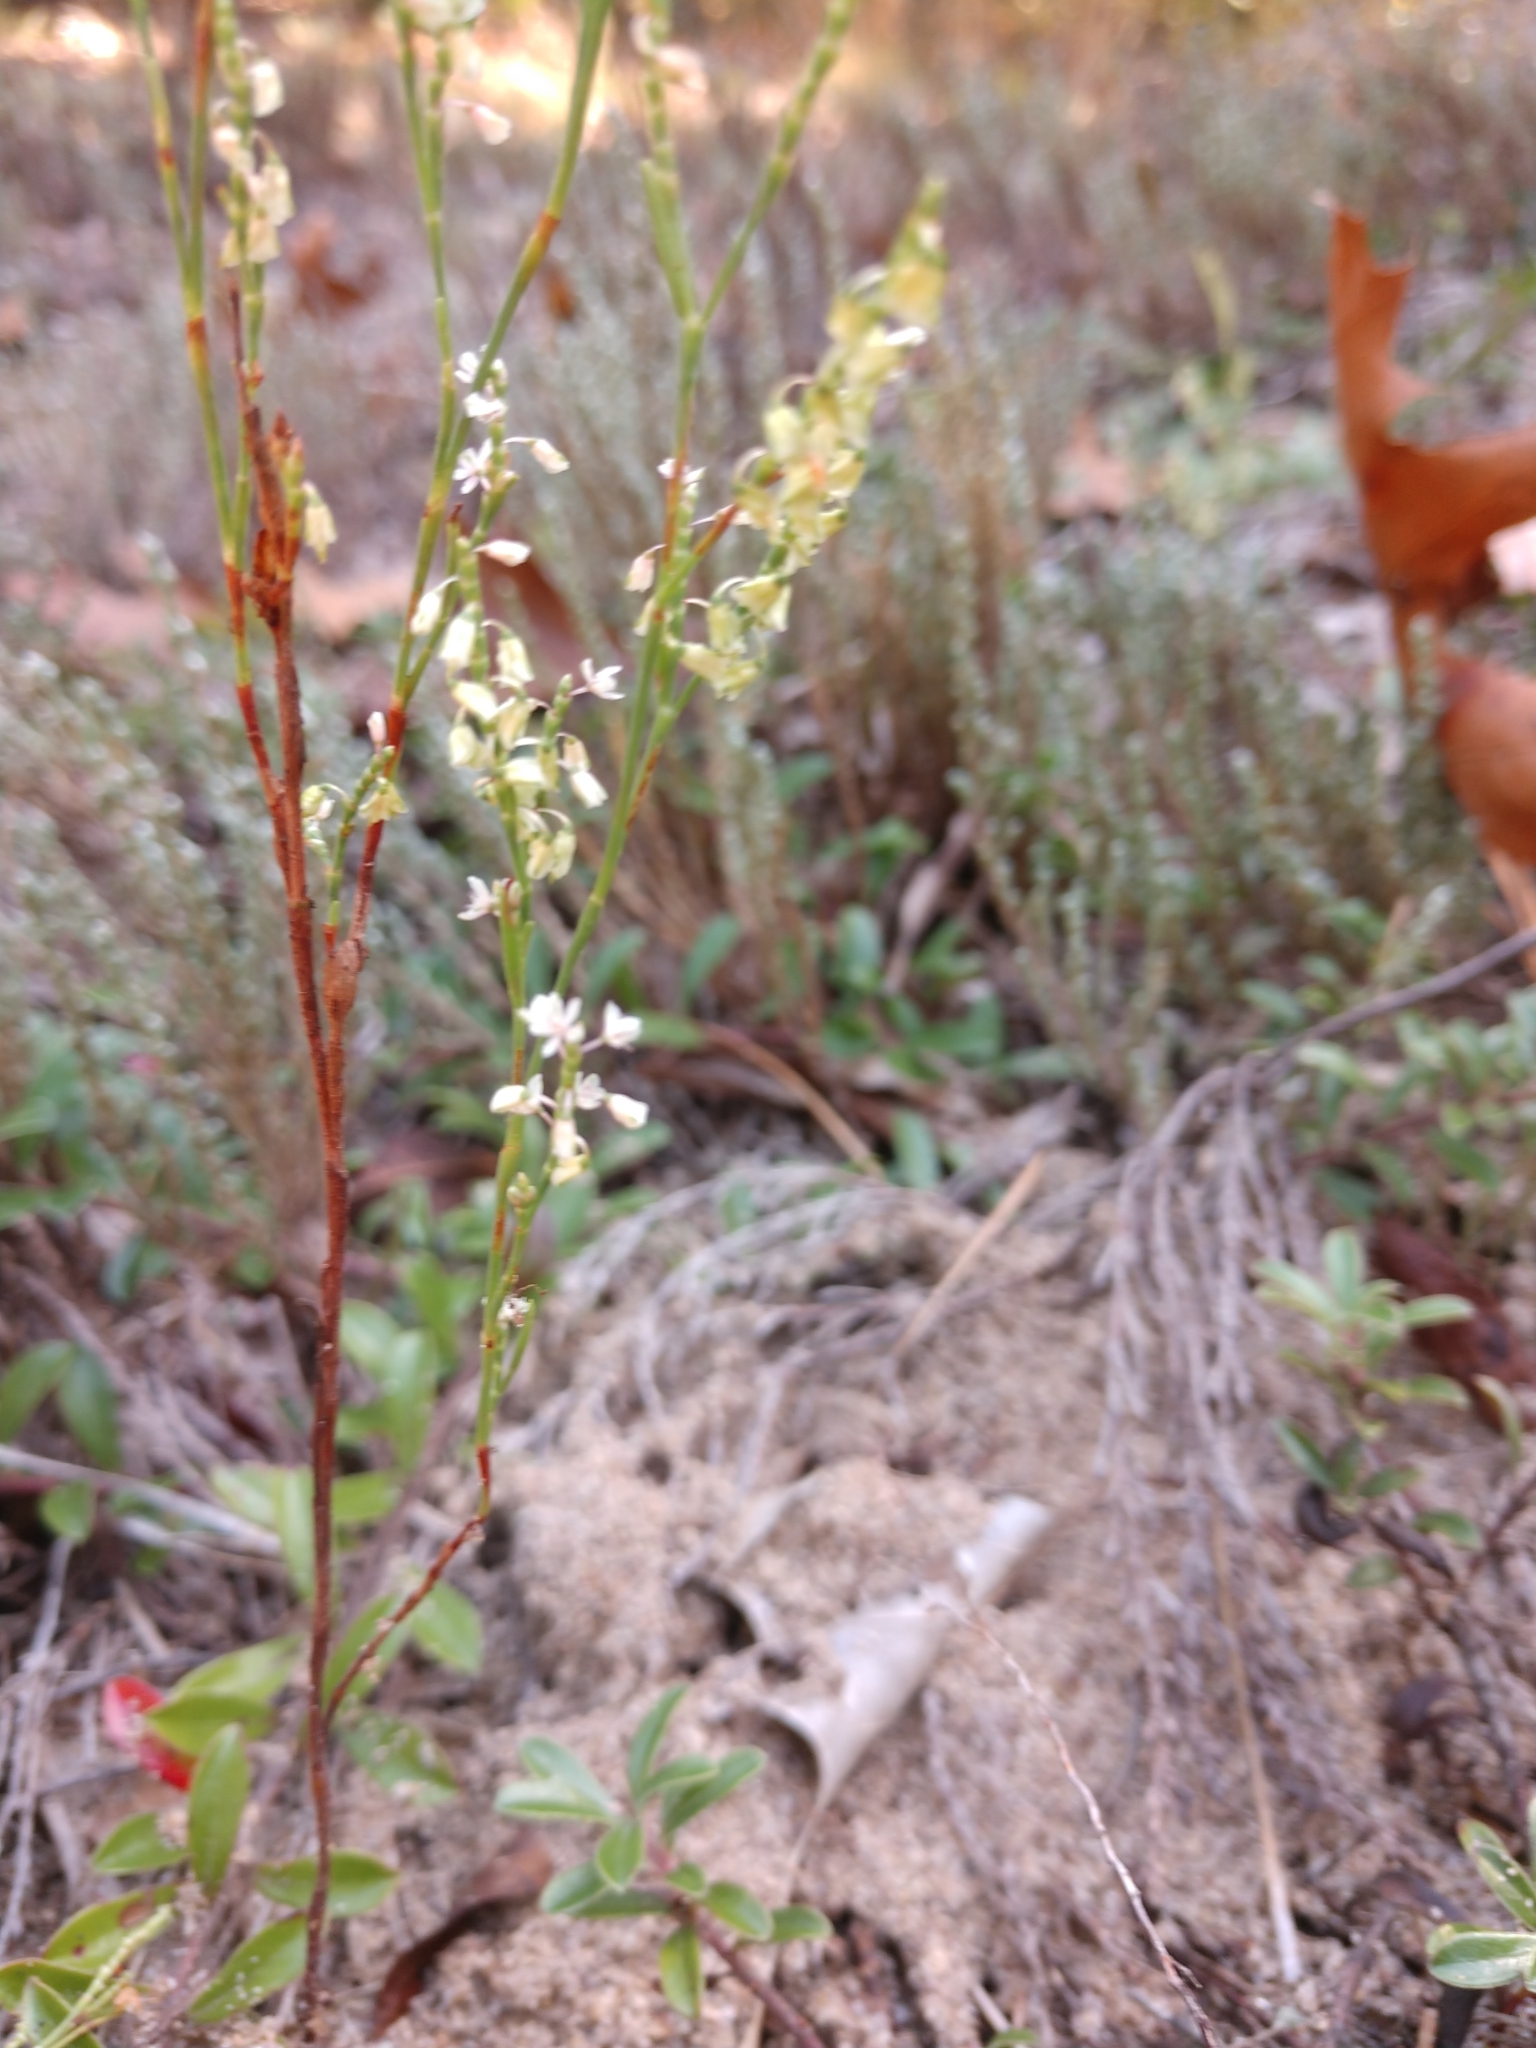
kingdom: Plantae
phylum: Tracheophyta
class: Magnoliopsida
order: Caryophyllales
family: Polygonaceae
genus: Polygonella
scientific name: Polygonella articulata
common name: Coastal jointweed
